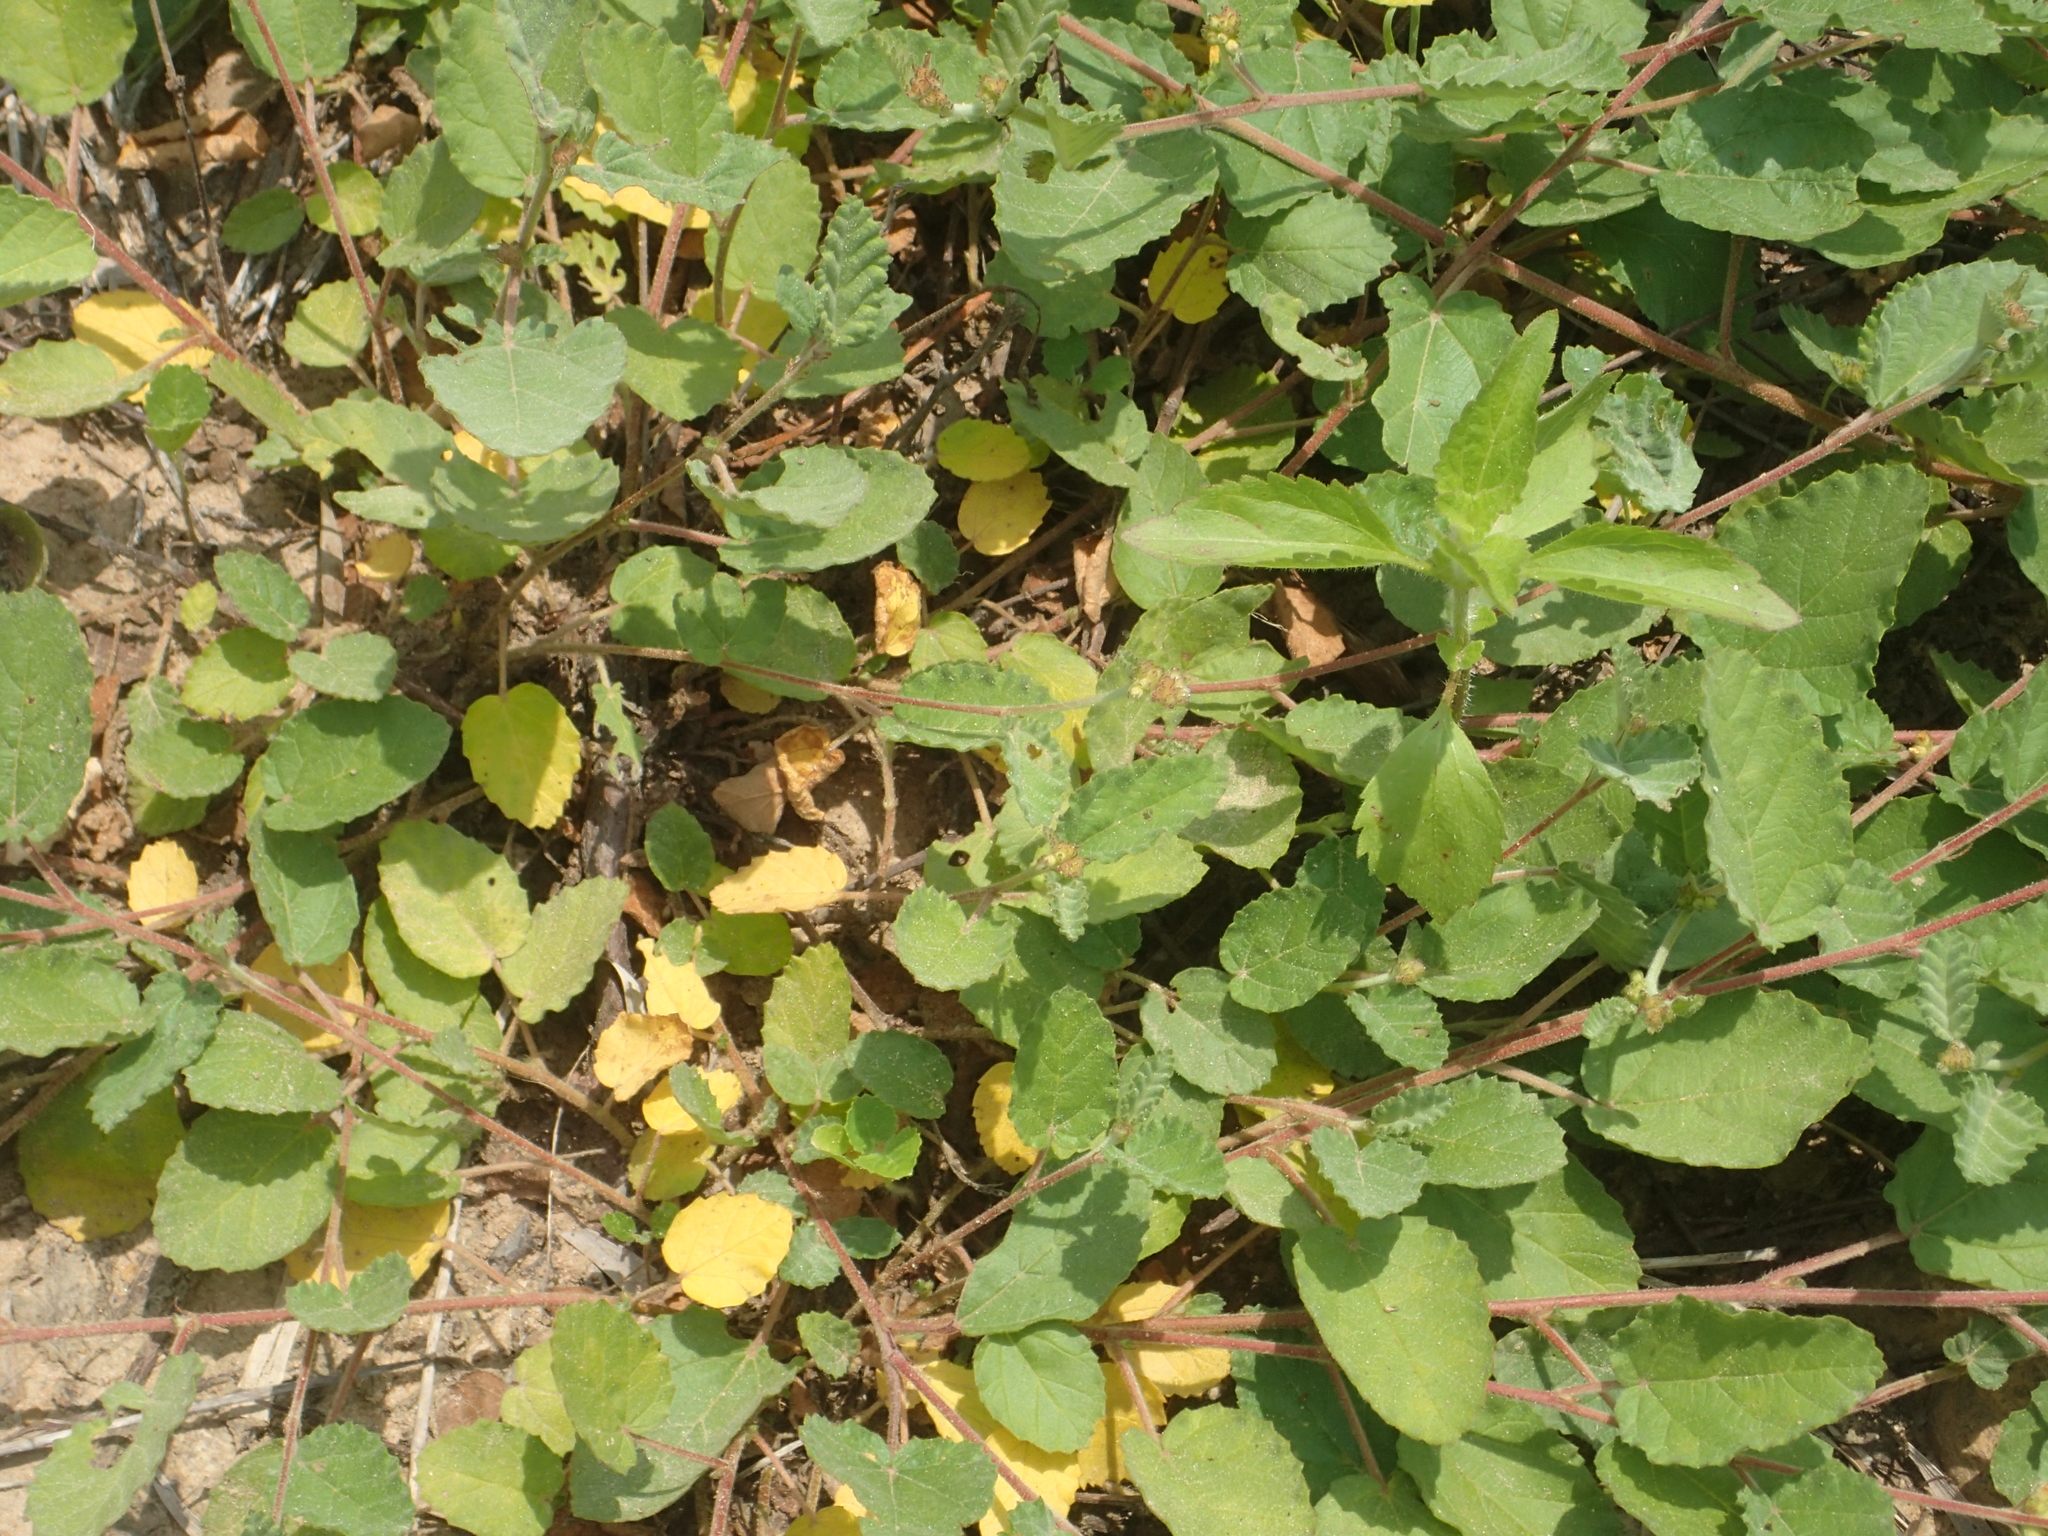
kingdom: Plantae
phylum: Tracheophyta
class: Magnoliopsida
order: Malvales
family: Malvaceae
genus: Waltheria
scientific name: Waltheria indica
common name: Leather-coat
